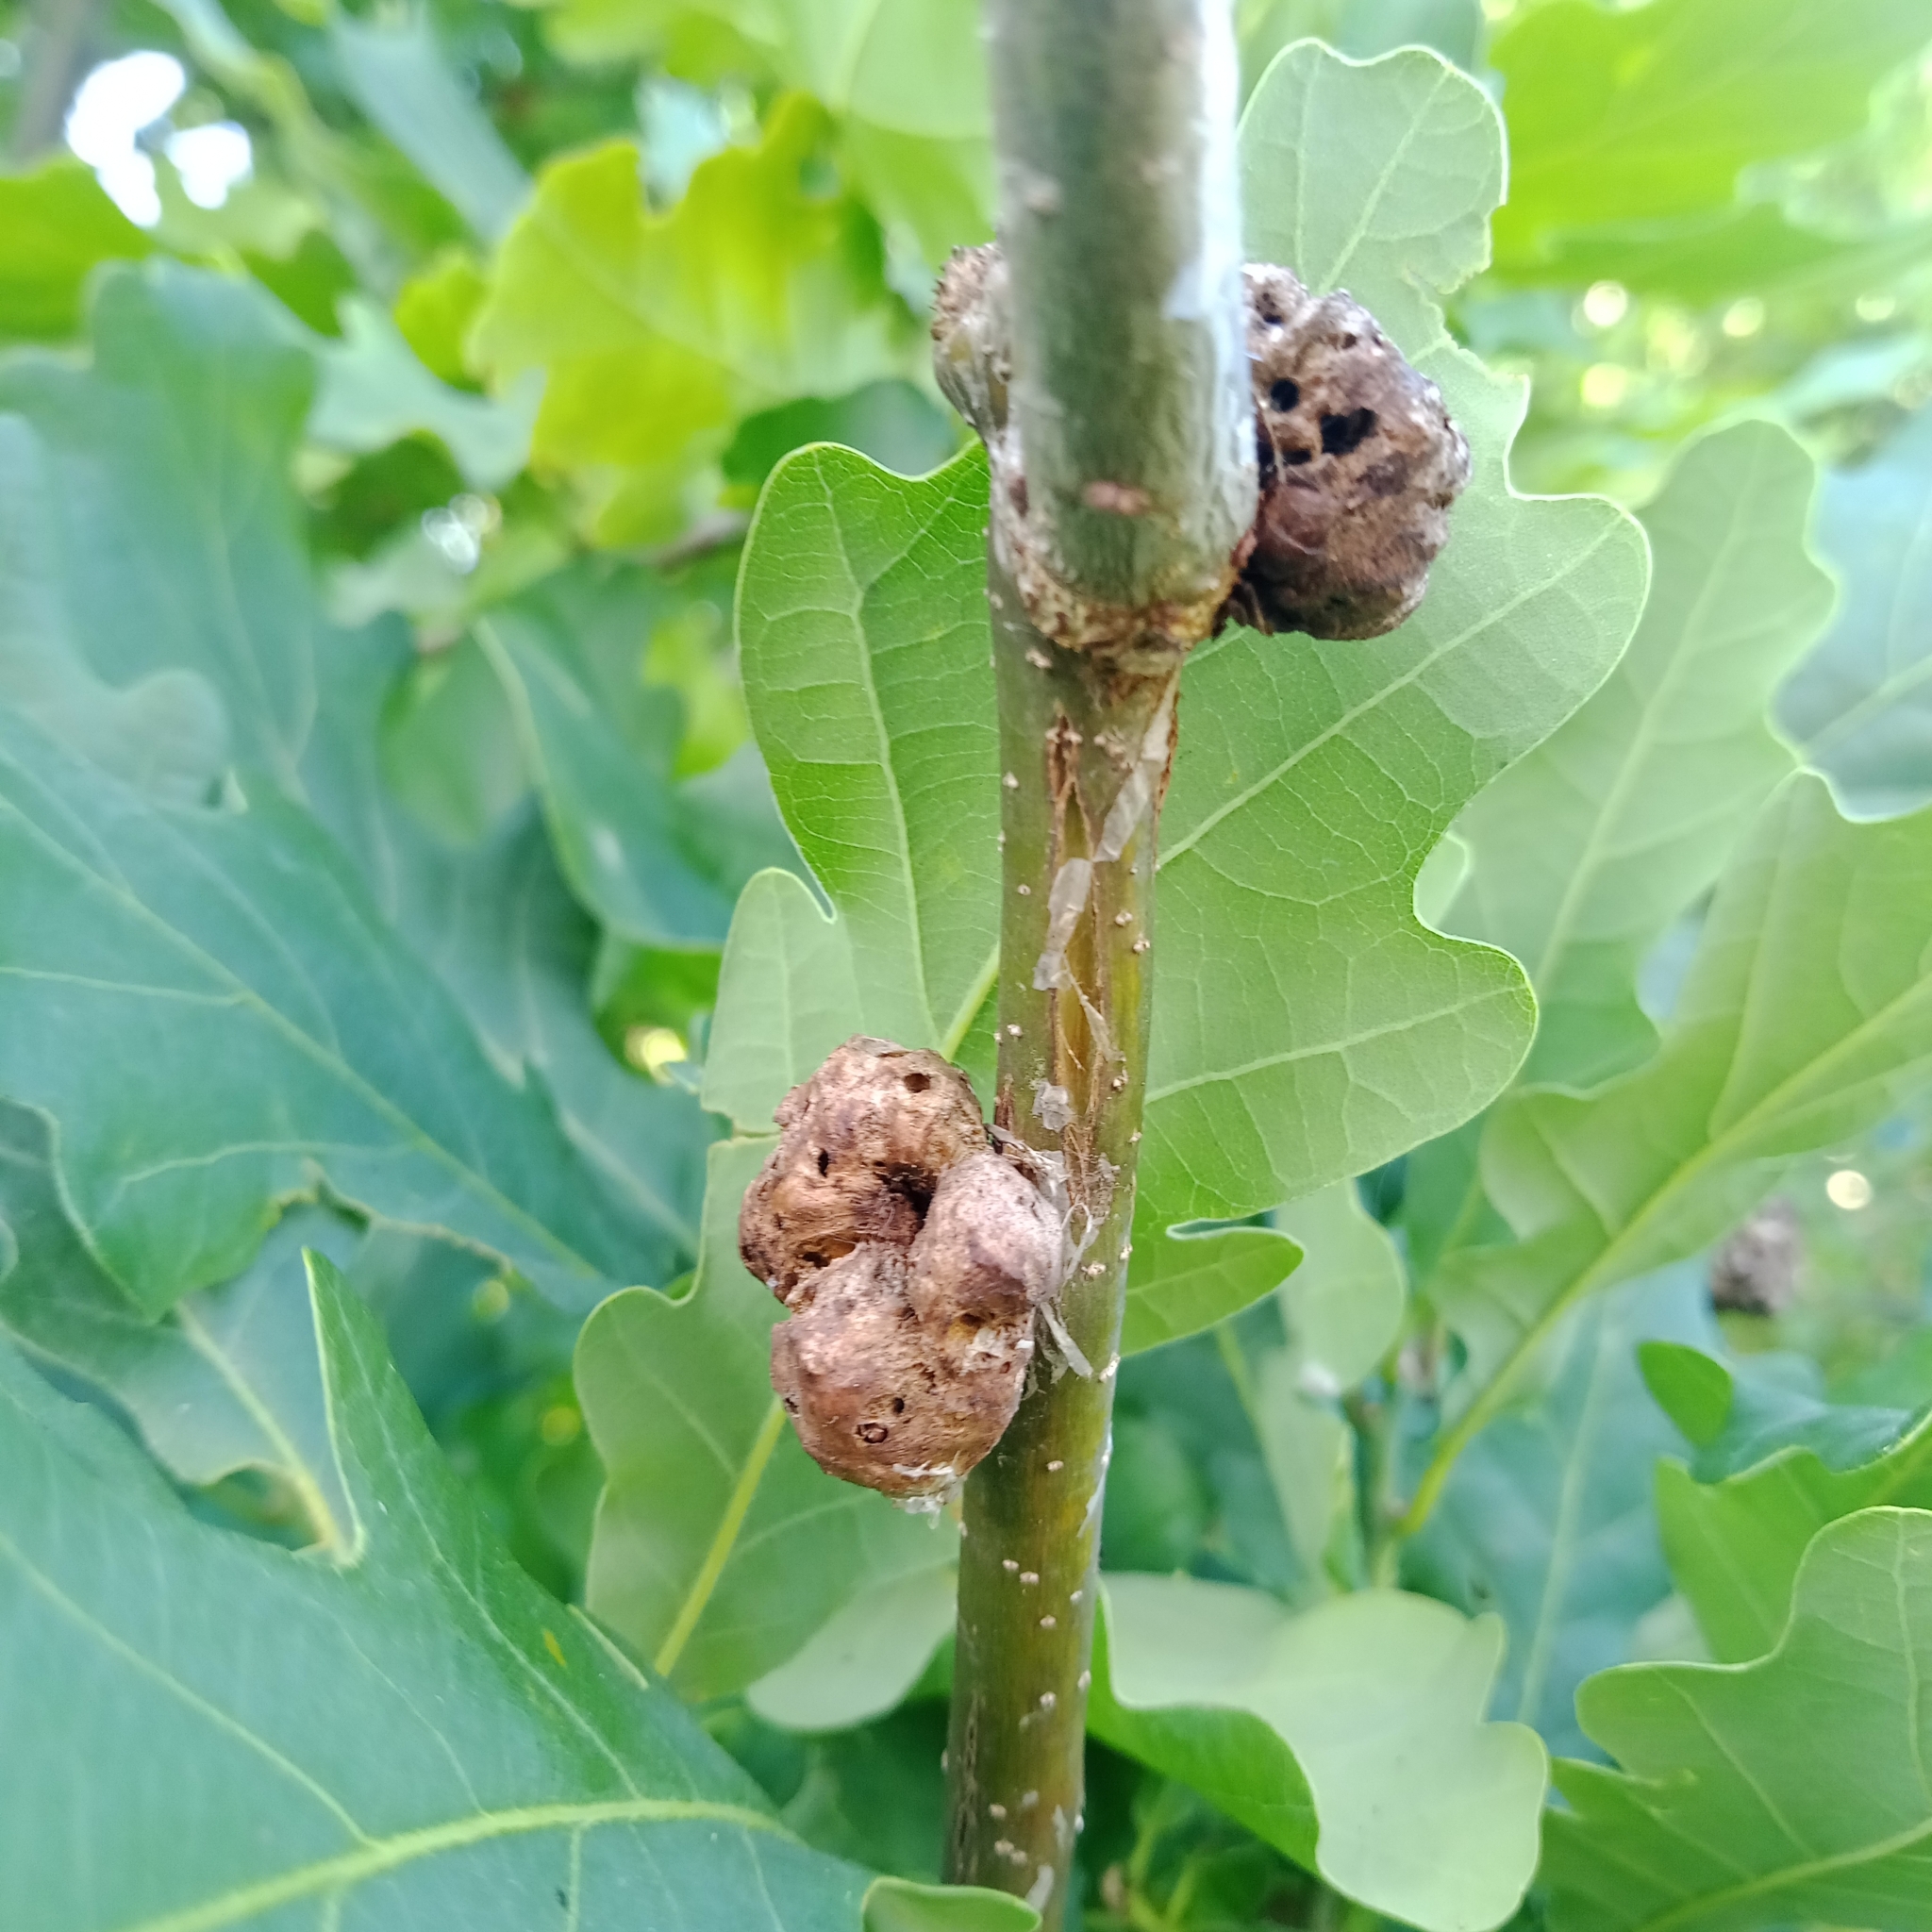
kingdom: Animalia
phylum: Arthropoda
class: Insecta
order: Hymenoptera
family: Cynipidae
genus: Biorhiza
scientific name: Biorhiza pallida
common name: Oak apple
